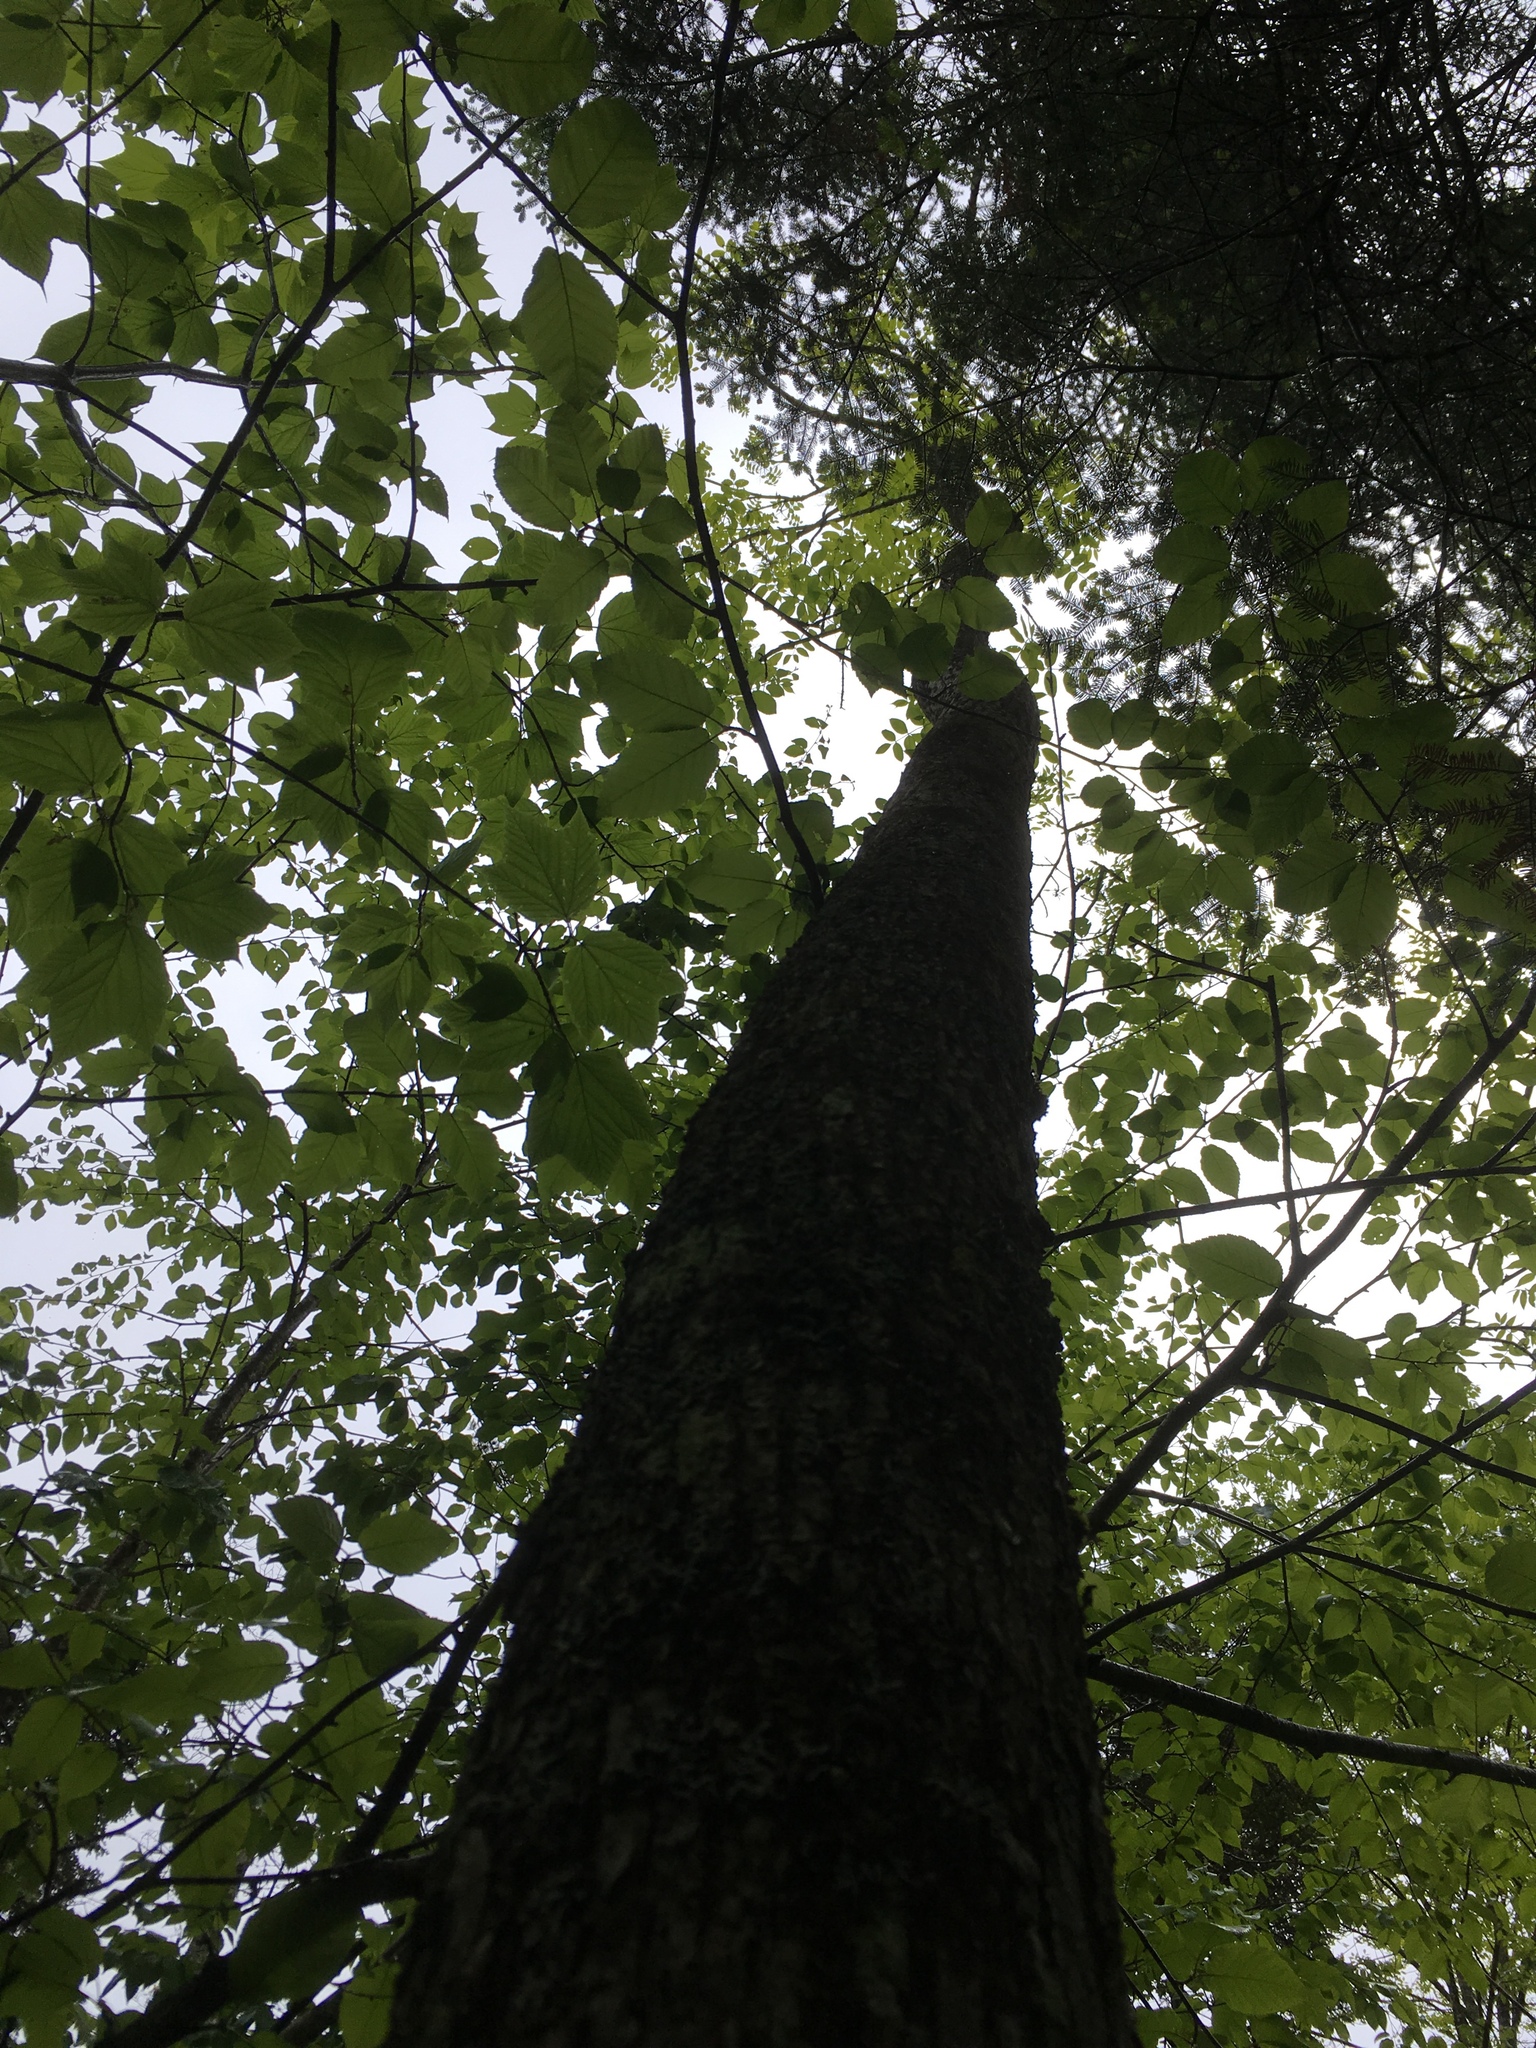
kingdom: Plantae
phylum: Tracheophyta
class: Magnoliopsida
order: Lamiales
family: Oleaceae
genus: Fraxinus
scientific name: Fraxinus nigra
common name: Black ash
